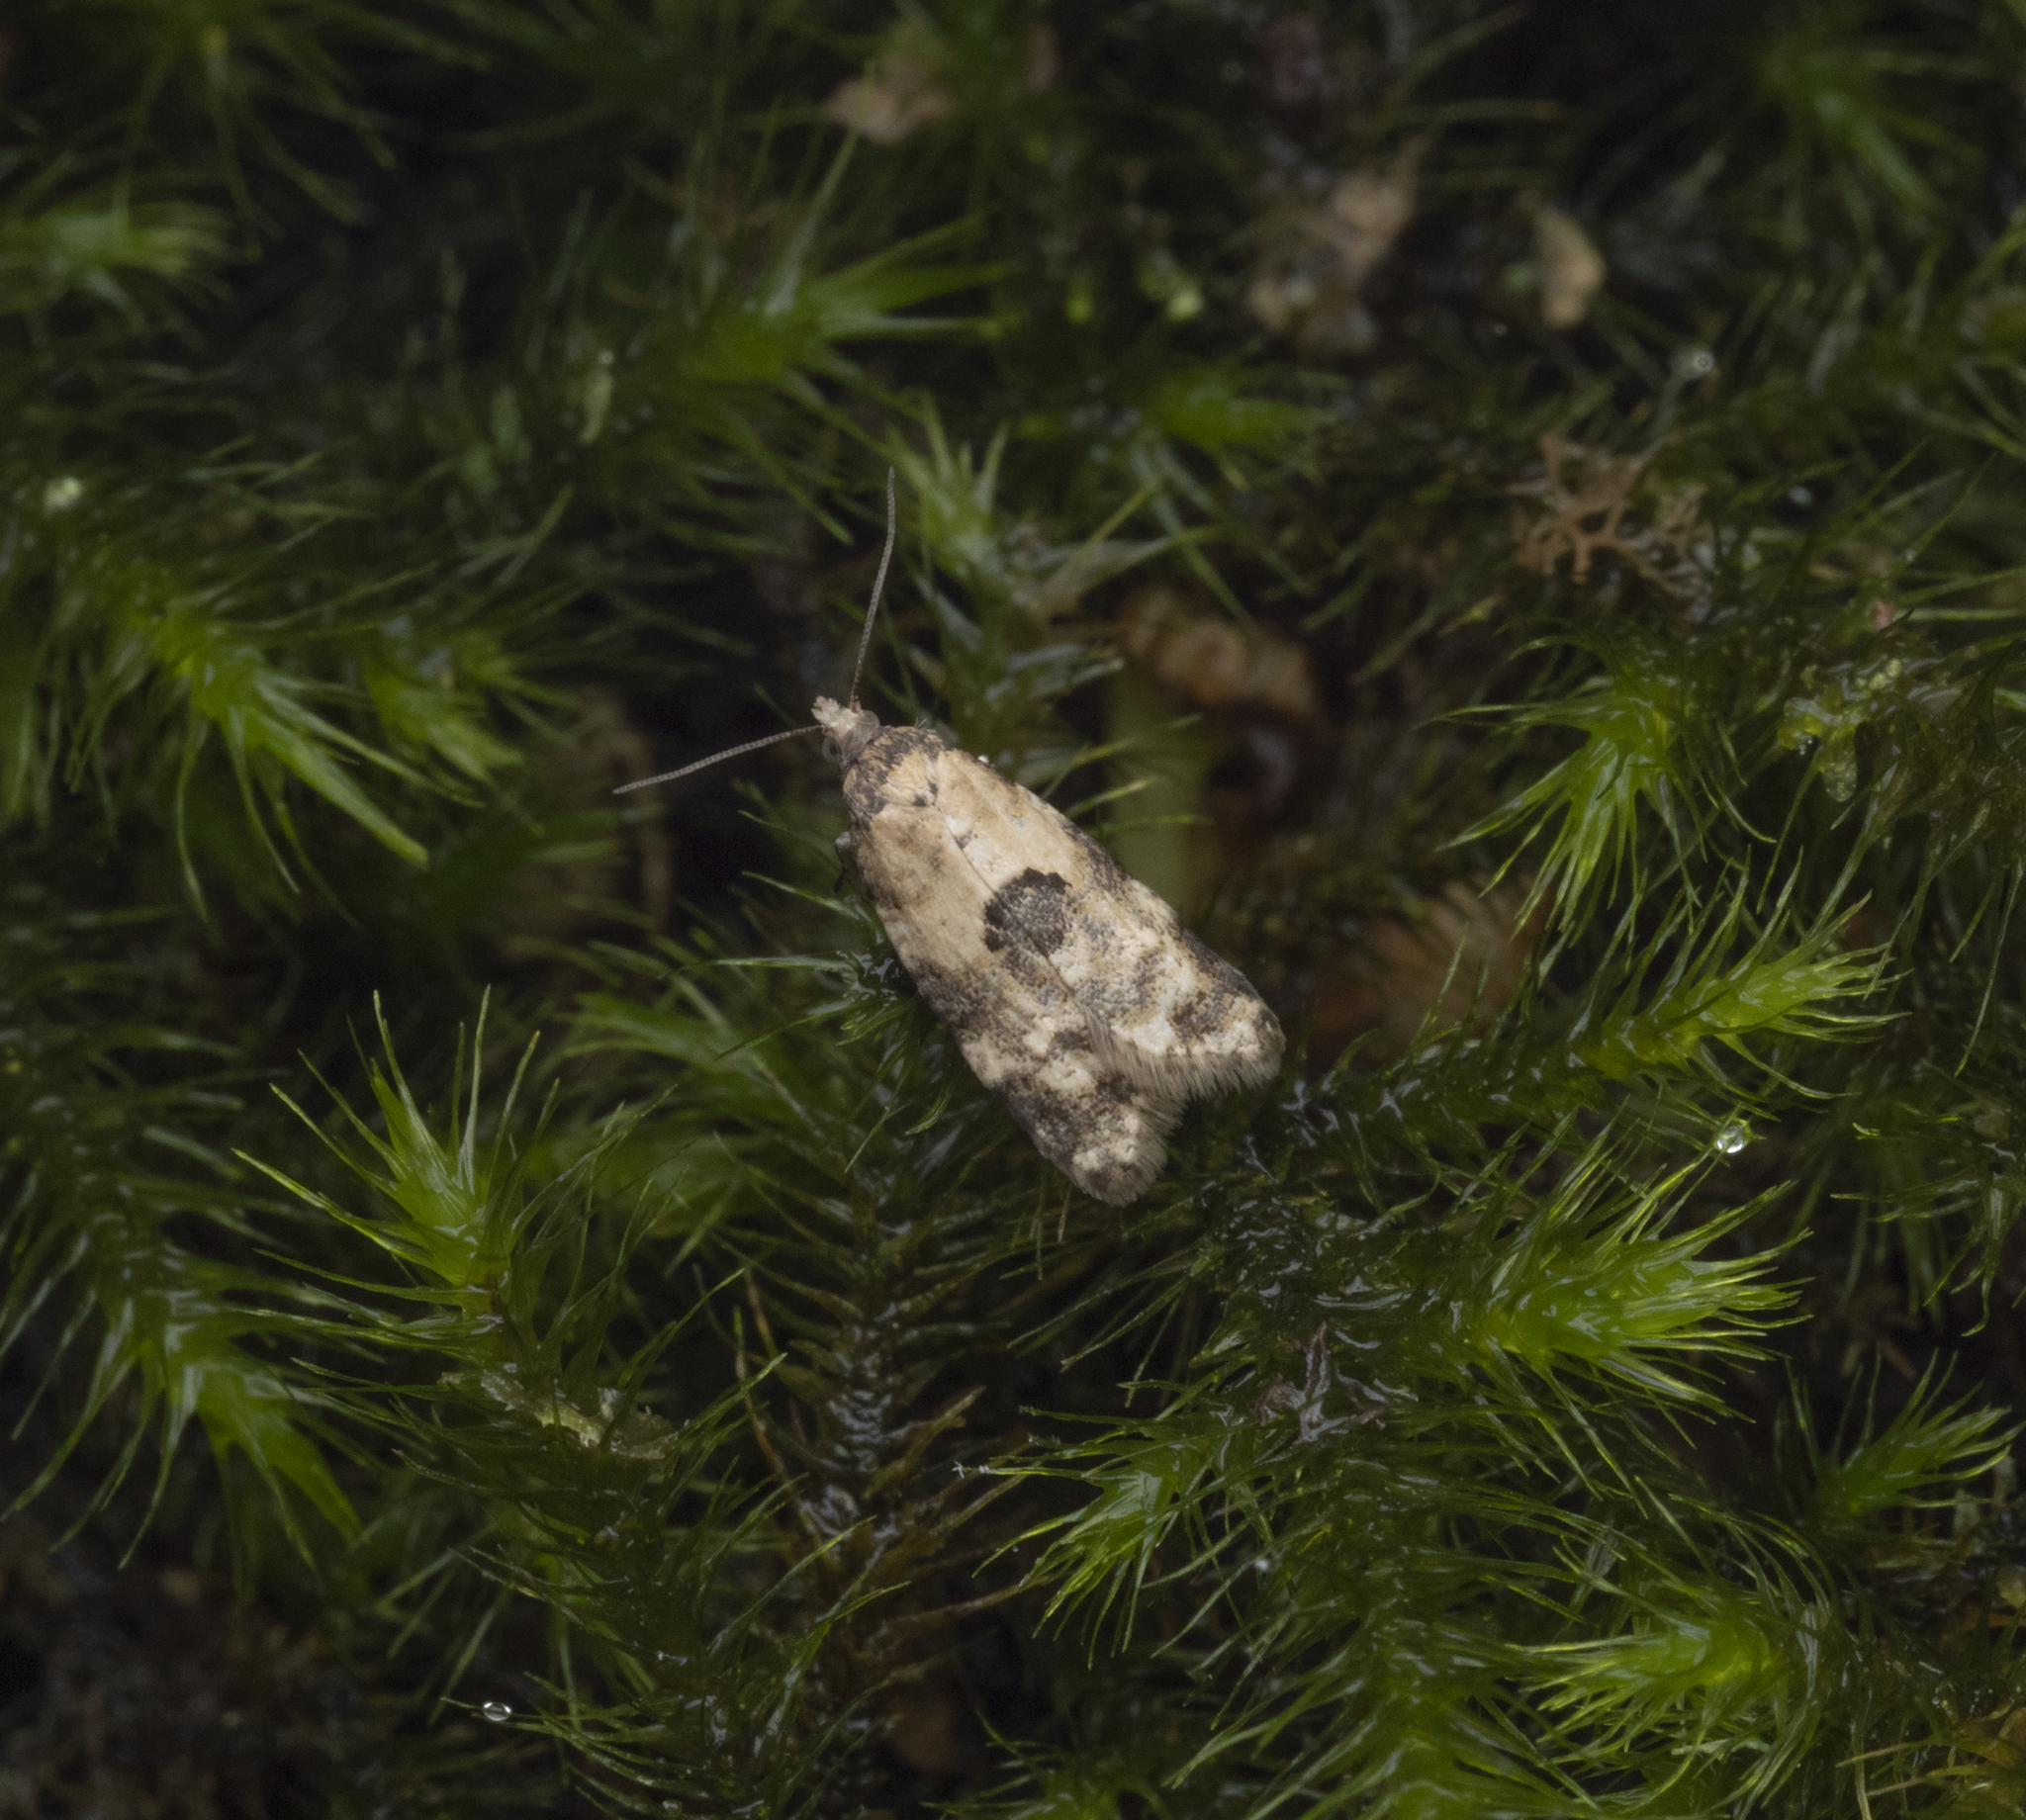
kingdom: Animalia
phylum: Arthropoda
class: Insecta
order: Lepidoptera
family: Tortricidae
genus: Dipterina
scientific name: Dipterina imbriferana
